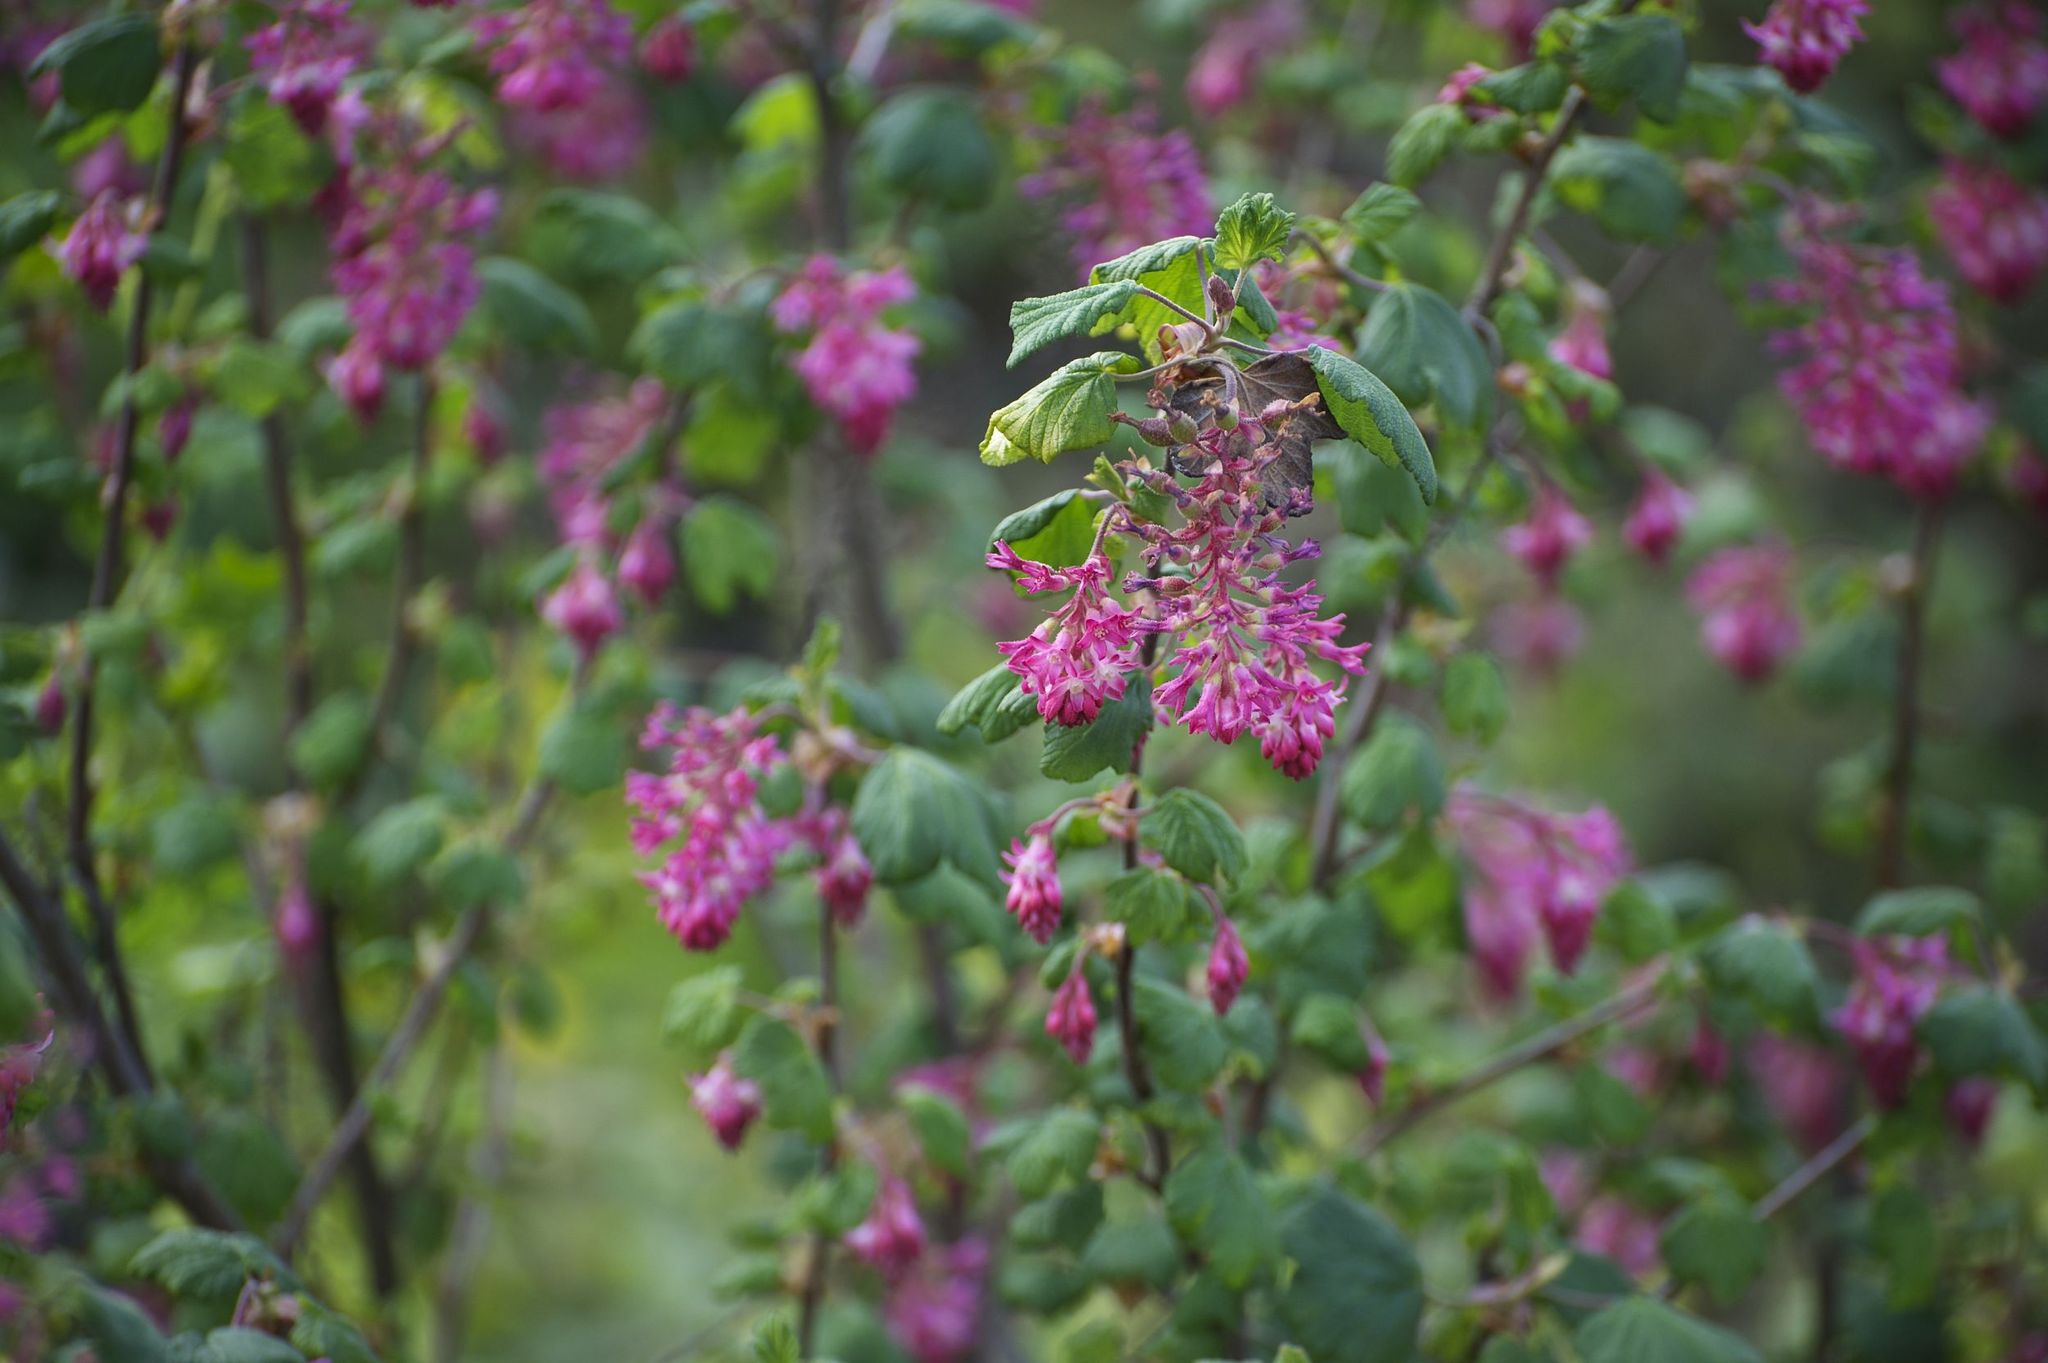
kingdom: Plantae
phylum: Tracheophyta
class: Magnoliopsida
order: Saxifragales
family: Grossulariaceae
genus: Ribes
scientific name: Ribes sanguineum
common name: Flowering currant
